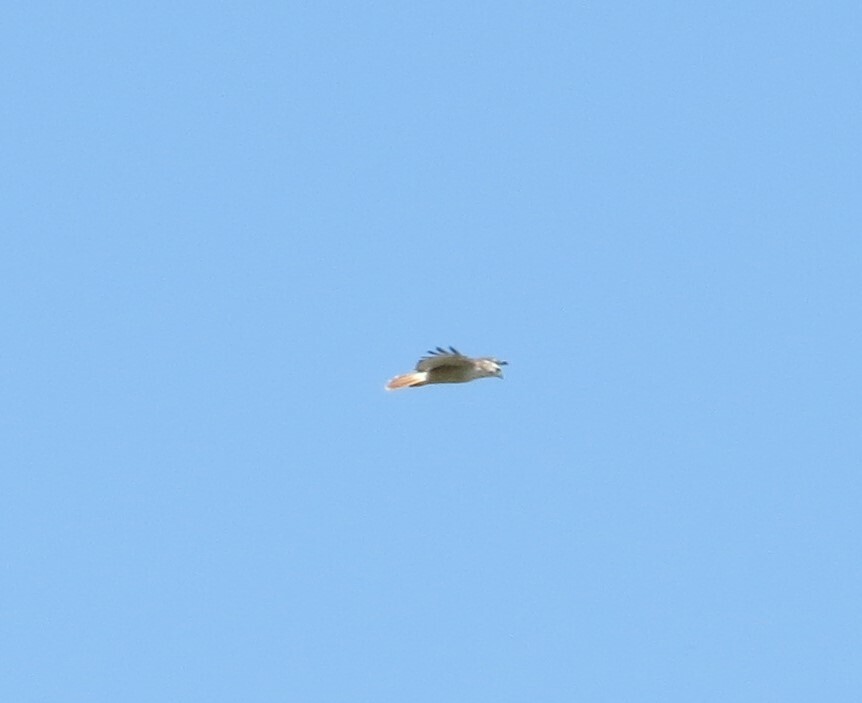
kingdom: Animalia
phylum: Chordata
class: Aves
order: Accipitriformes
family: Accipitridae
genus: Buteo
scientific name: Buteo jamaicensis
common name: Red-tailed hawk
